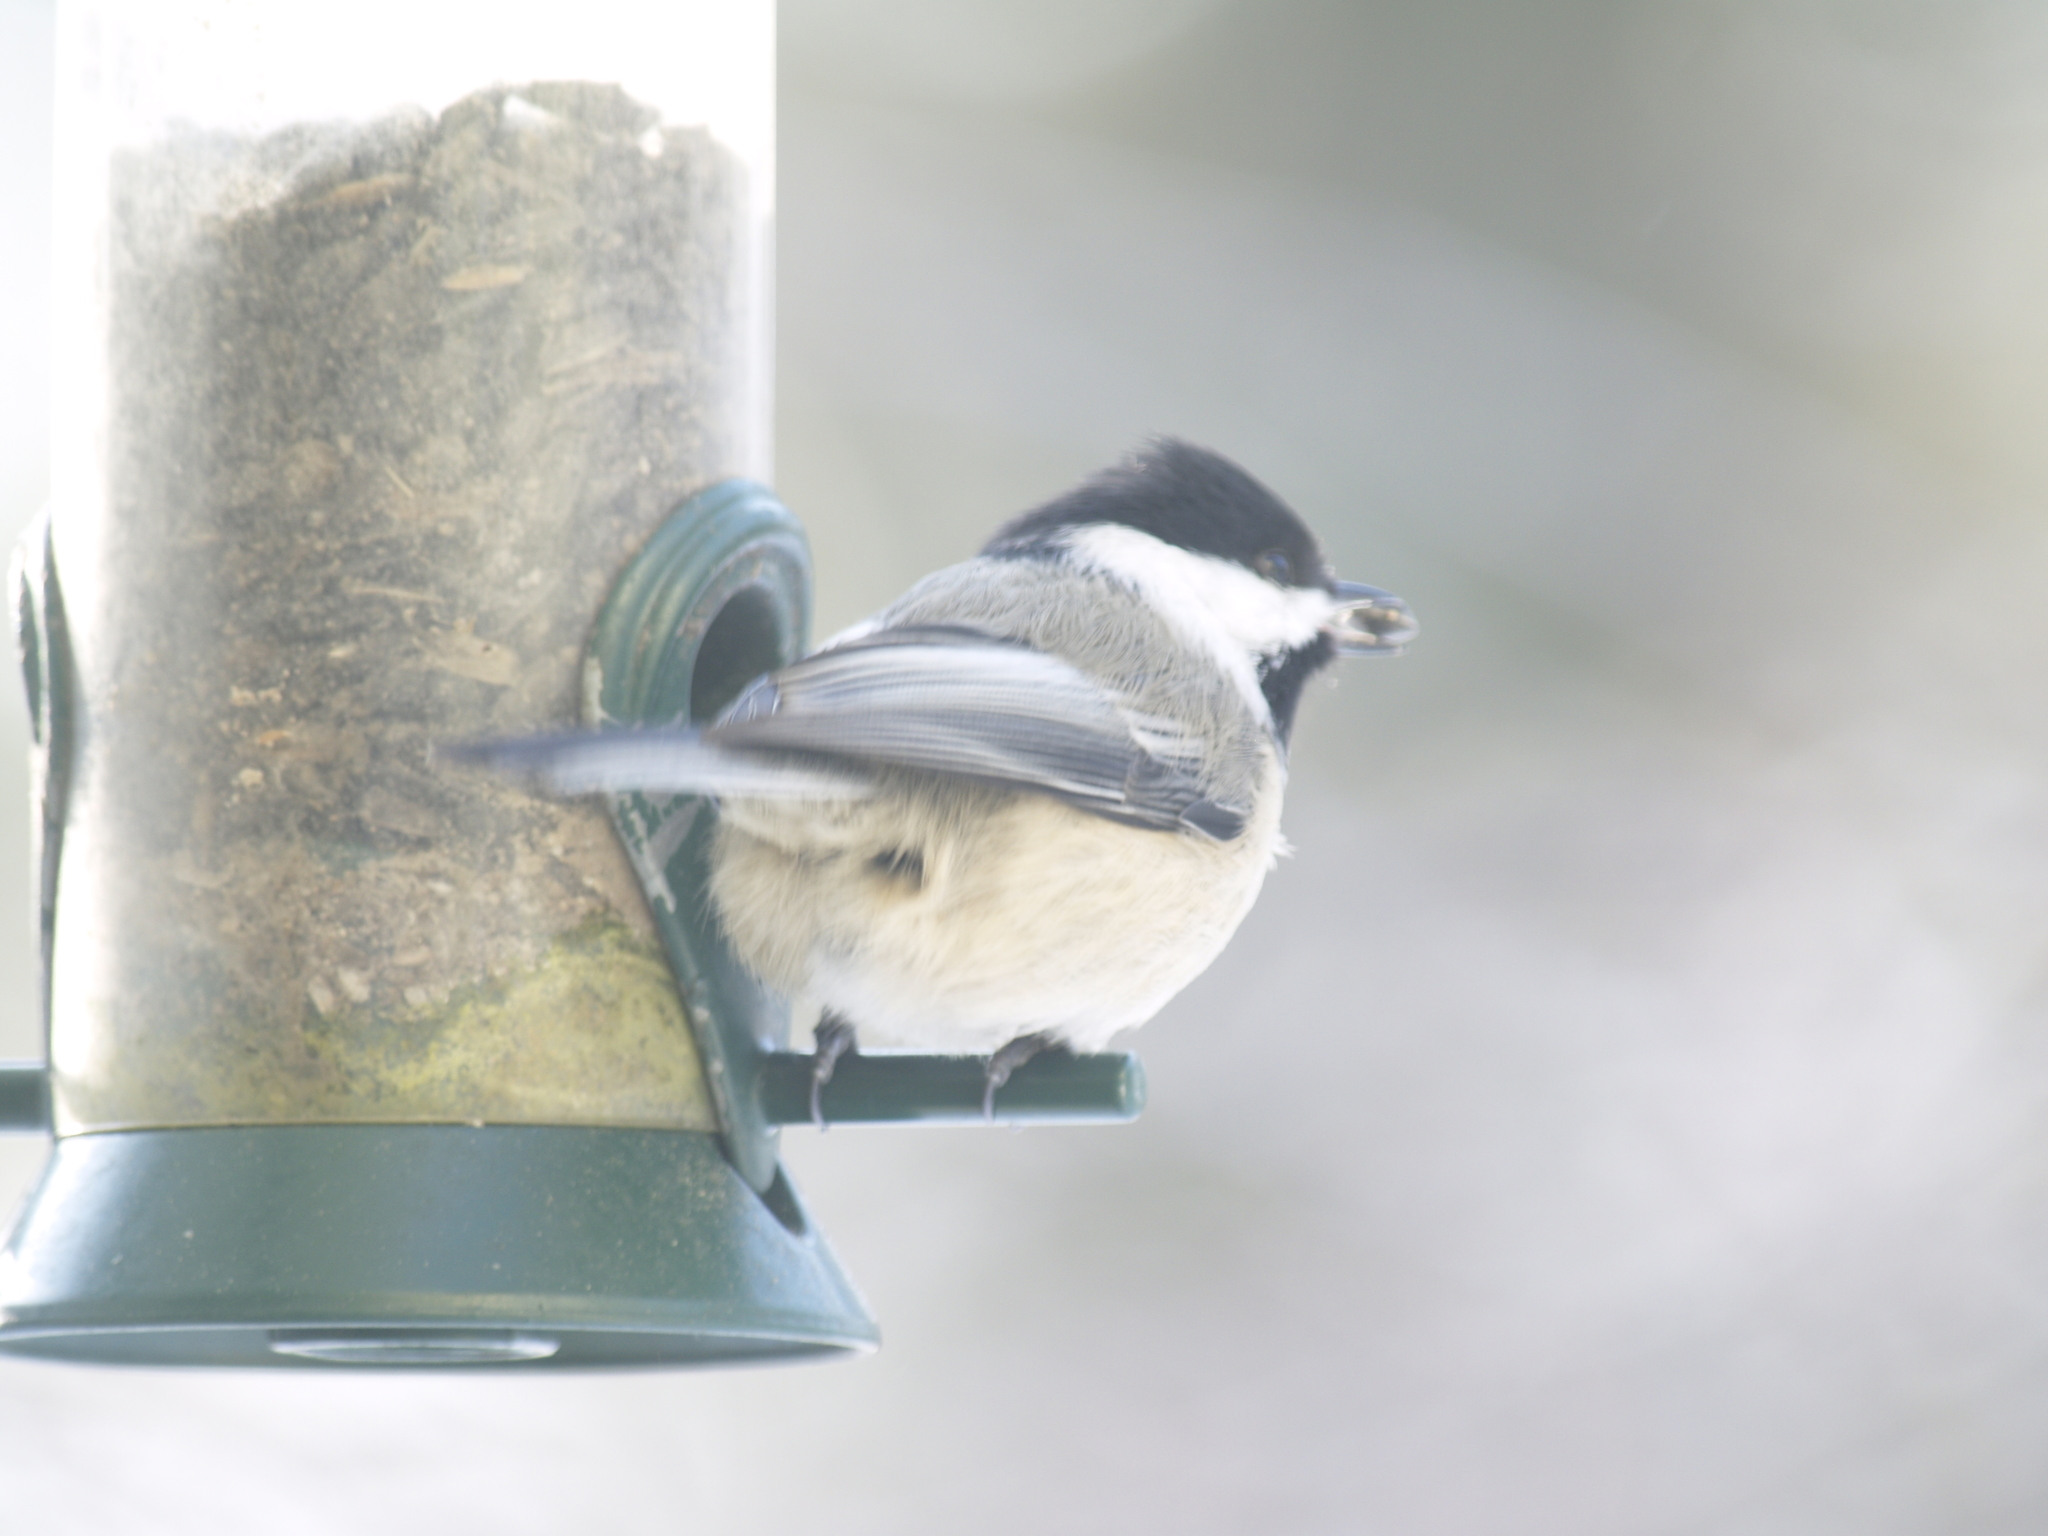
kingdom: Animalia
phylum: Chordata
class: Aves
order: Passeriformes
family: Paridae
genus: Poecile
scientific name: Poecile atricapillus
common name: Black-capped chickadee
